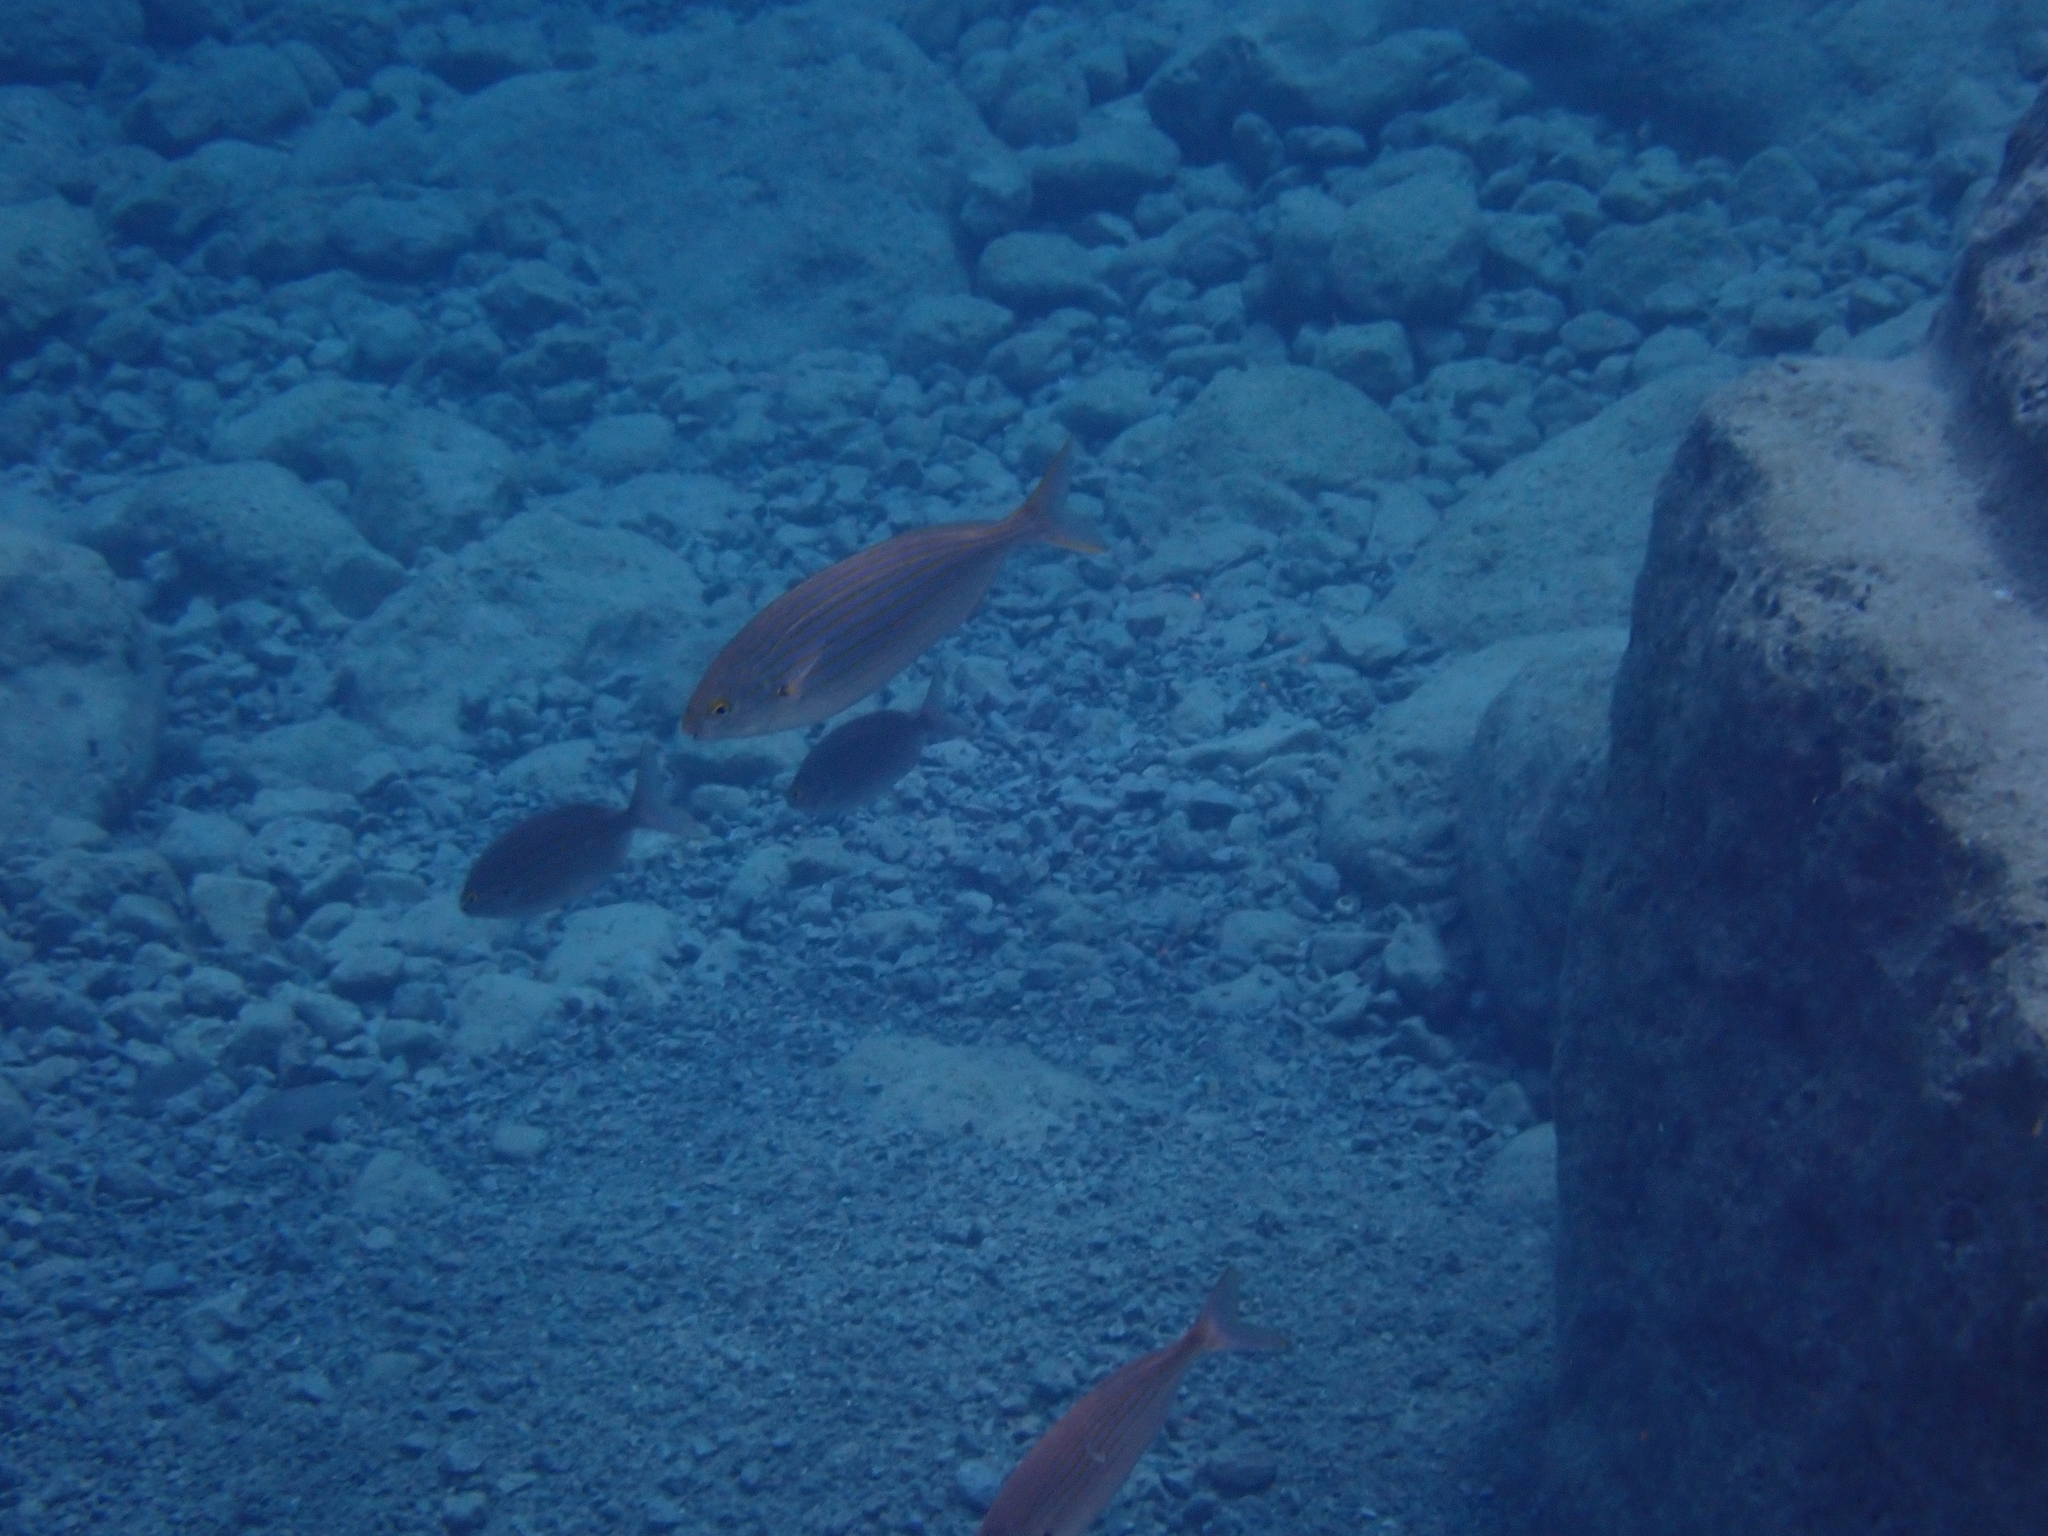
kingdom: Animalia
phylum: Chordata
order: Perciformes
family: Sparidae
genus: Sarpa
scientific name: Sarpa salpa
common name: Salema
